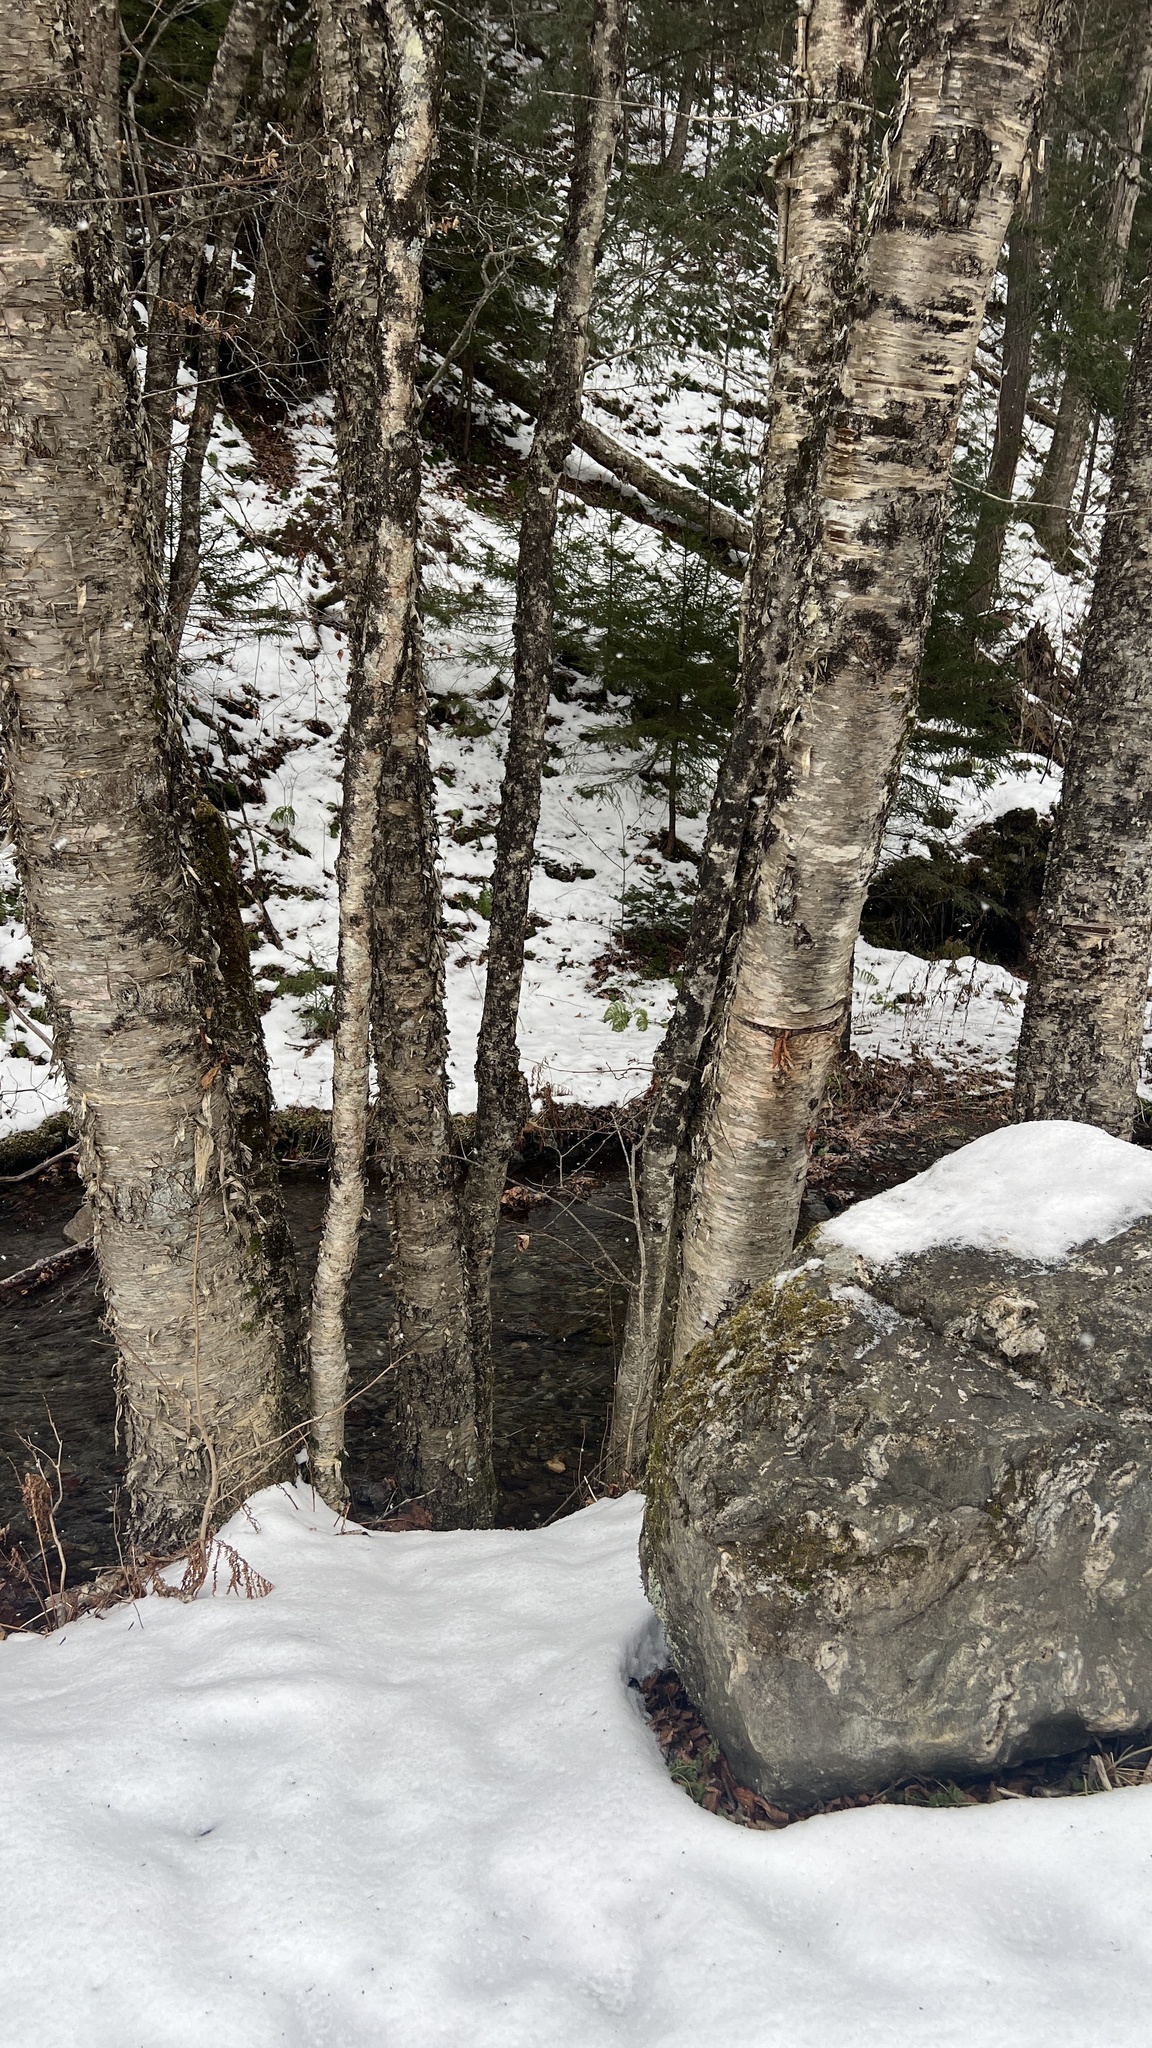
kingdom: Plantae
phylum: Tracheophyta
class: Magnoliopsida
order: Fagales
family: Betulaceae
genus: Betula
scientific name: Betula alleghaniensis
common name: Yellow birch
